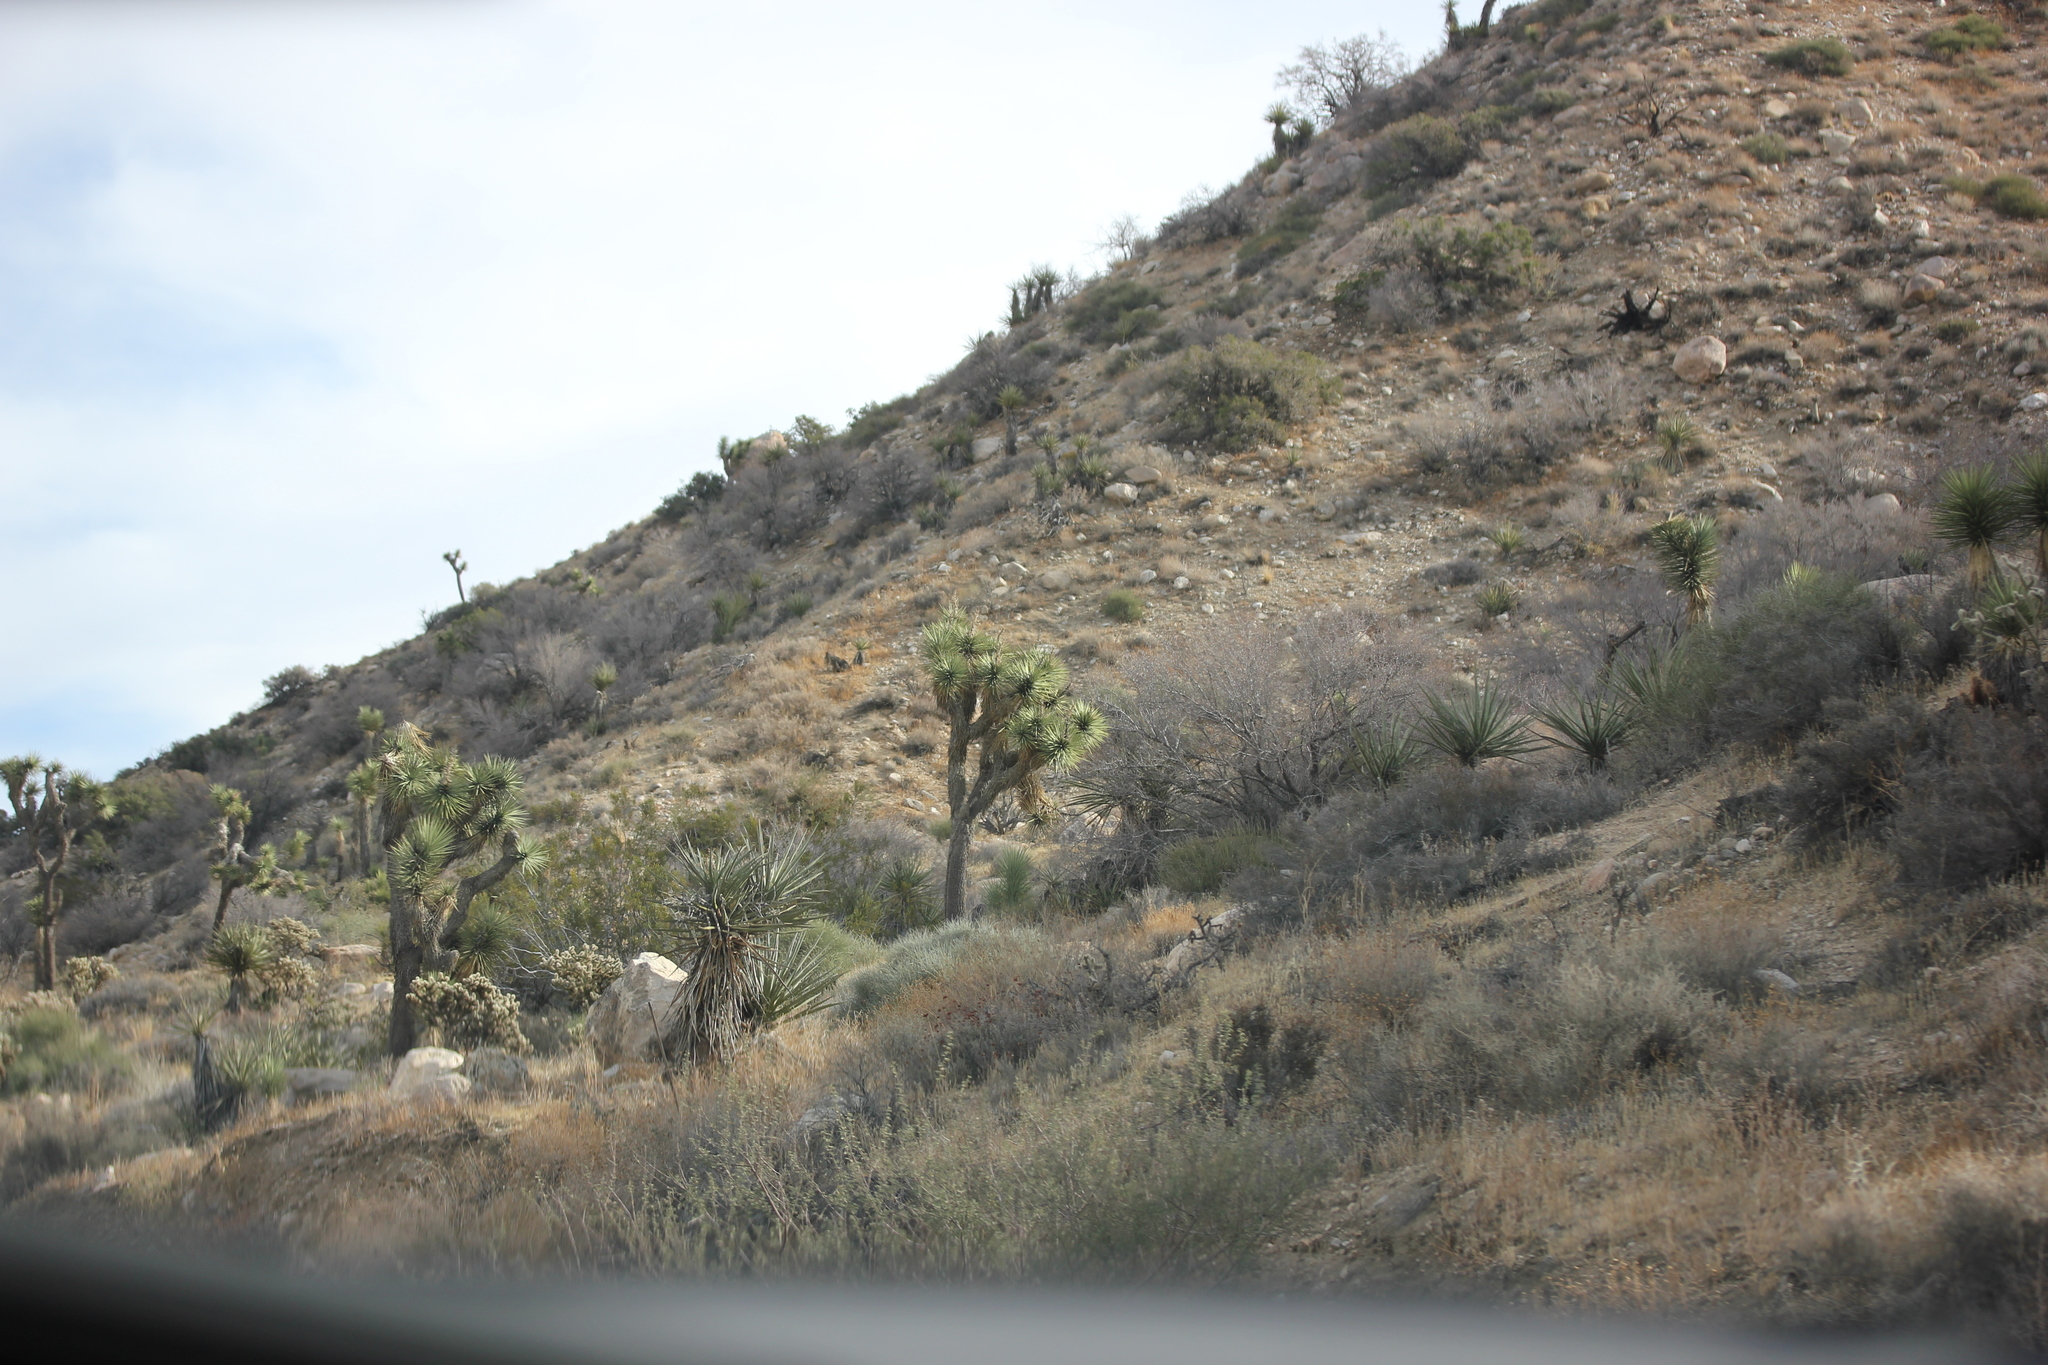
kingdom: Plantae
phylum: Tracheophyta
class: Liliopsida
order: Asparagales
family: Asparagaceae
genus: Yucca
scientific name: Yucca brevifolia
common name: Joshua tree
